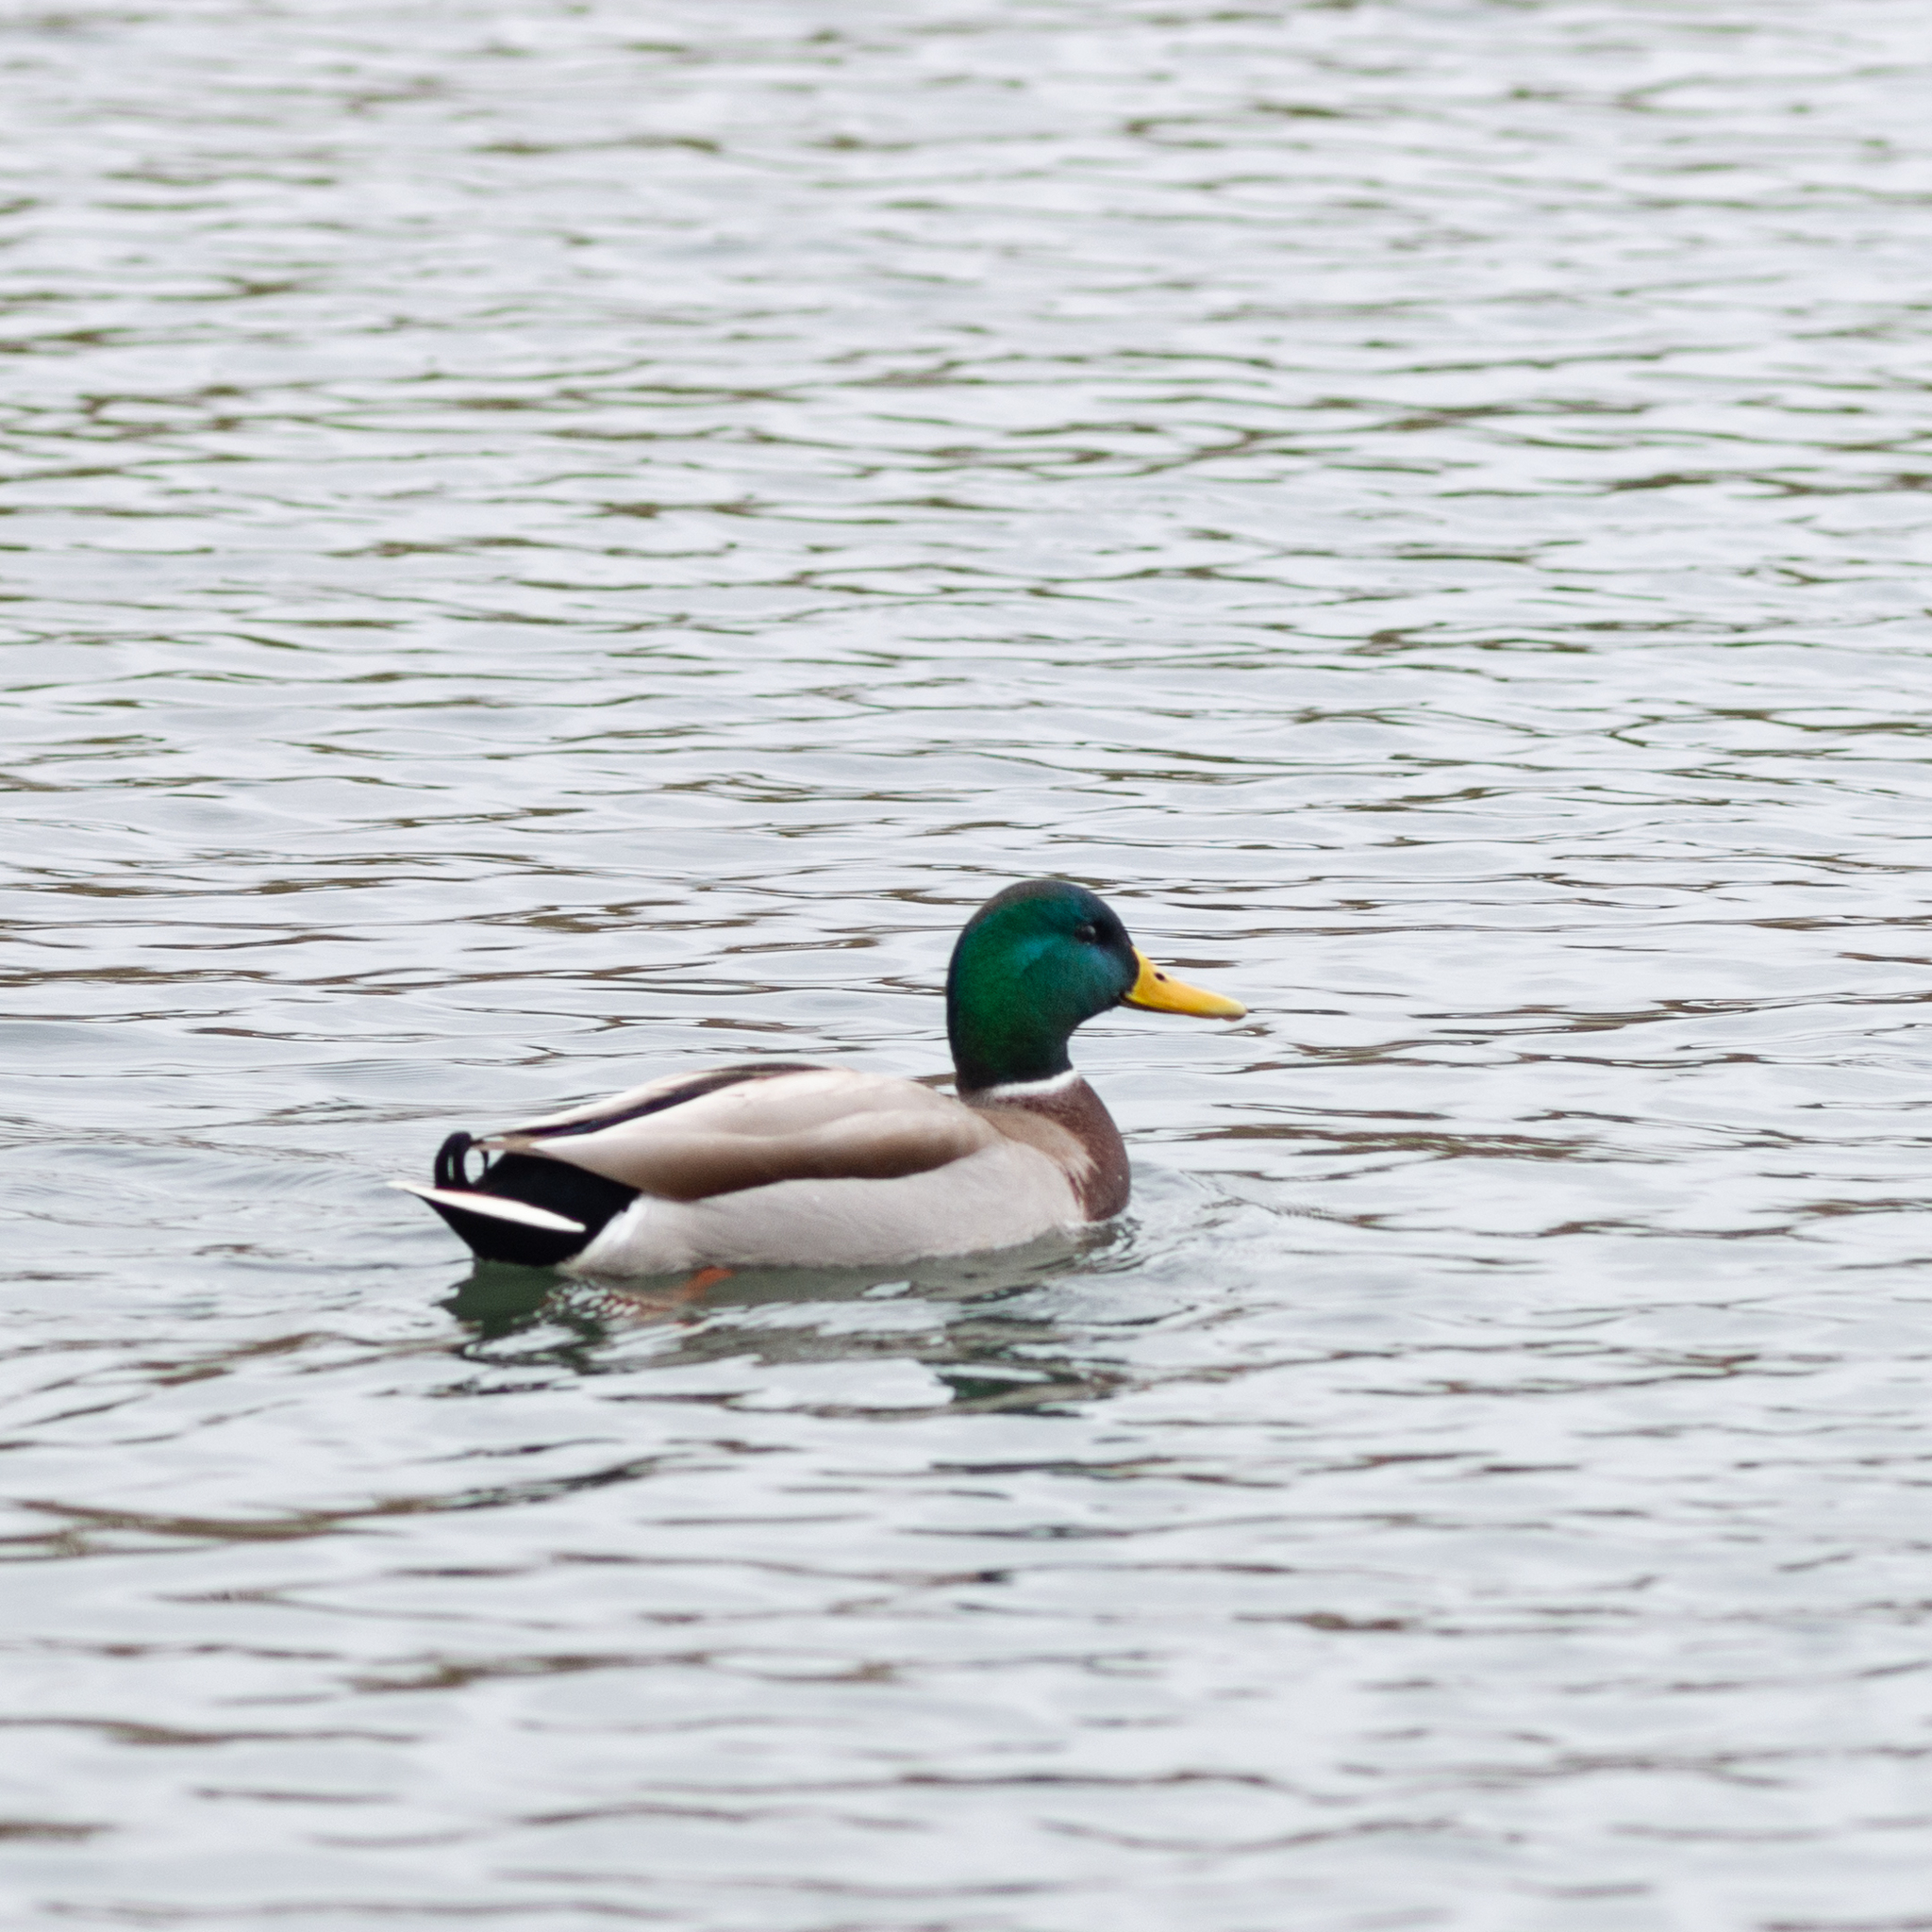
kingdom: Animalia
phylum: Chordata
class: Aves
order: Anseriformes
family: Anatidae
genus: Anas
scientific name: Anas platyrhynchos
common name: Mallard
